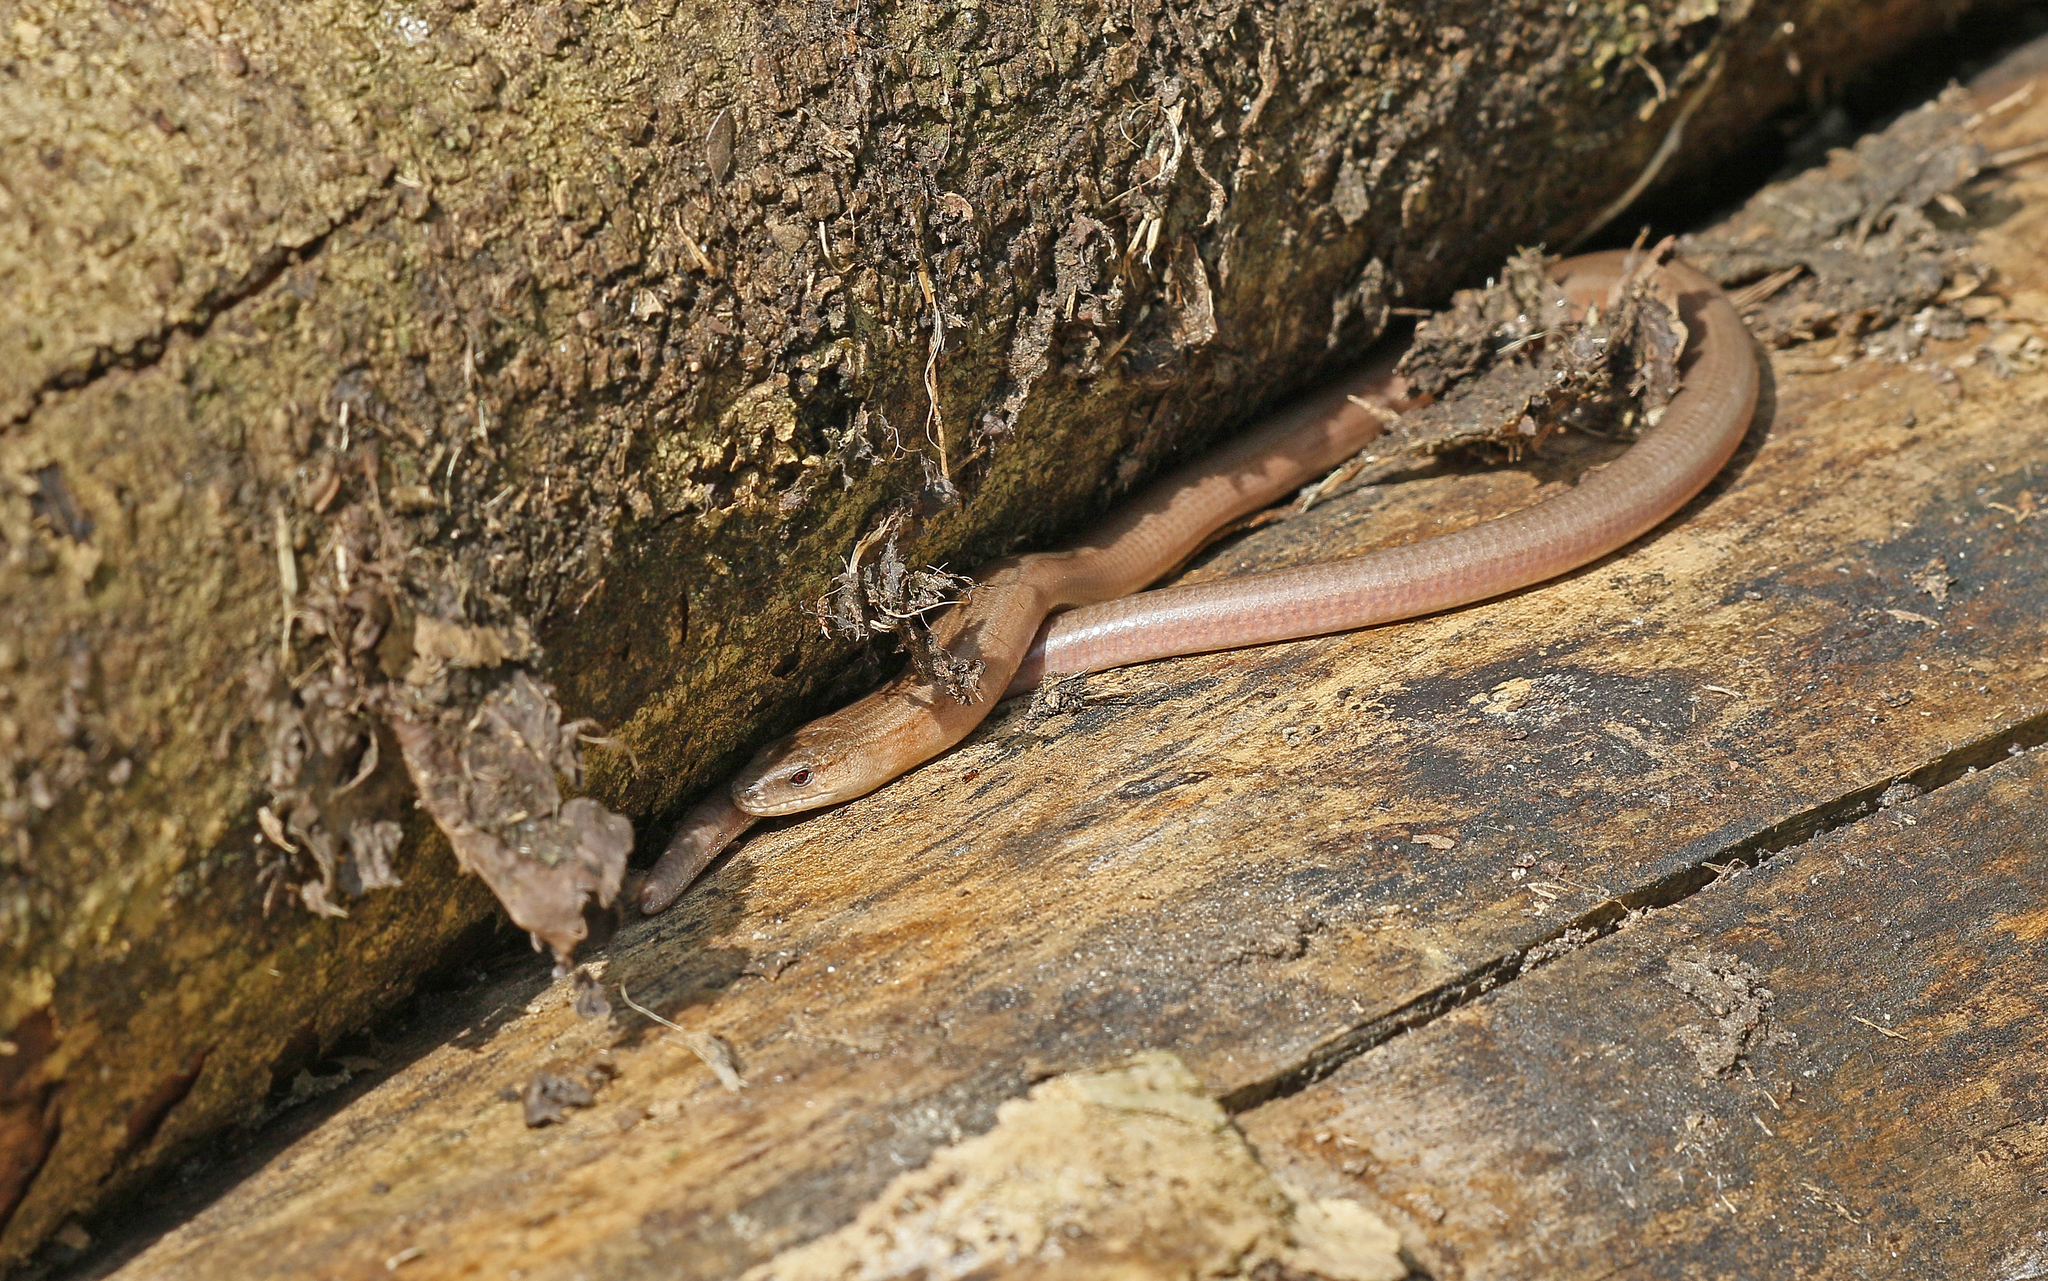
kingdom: Animalia
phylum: Chordata
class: Squamata
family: Anguidae
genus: Anguis
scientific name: Anguis fragilis
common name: Slow worm
